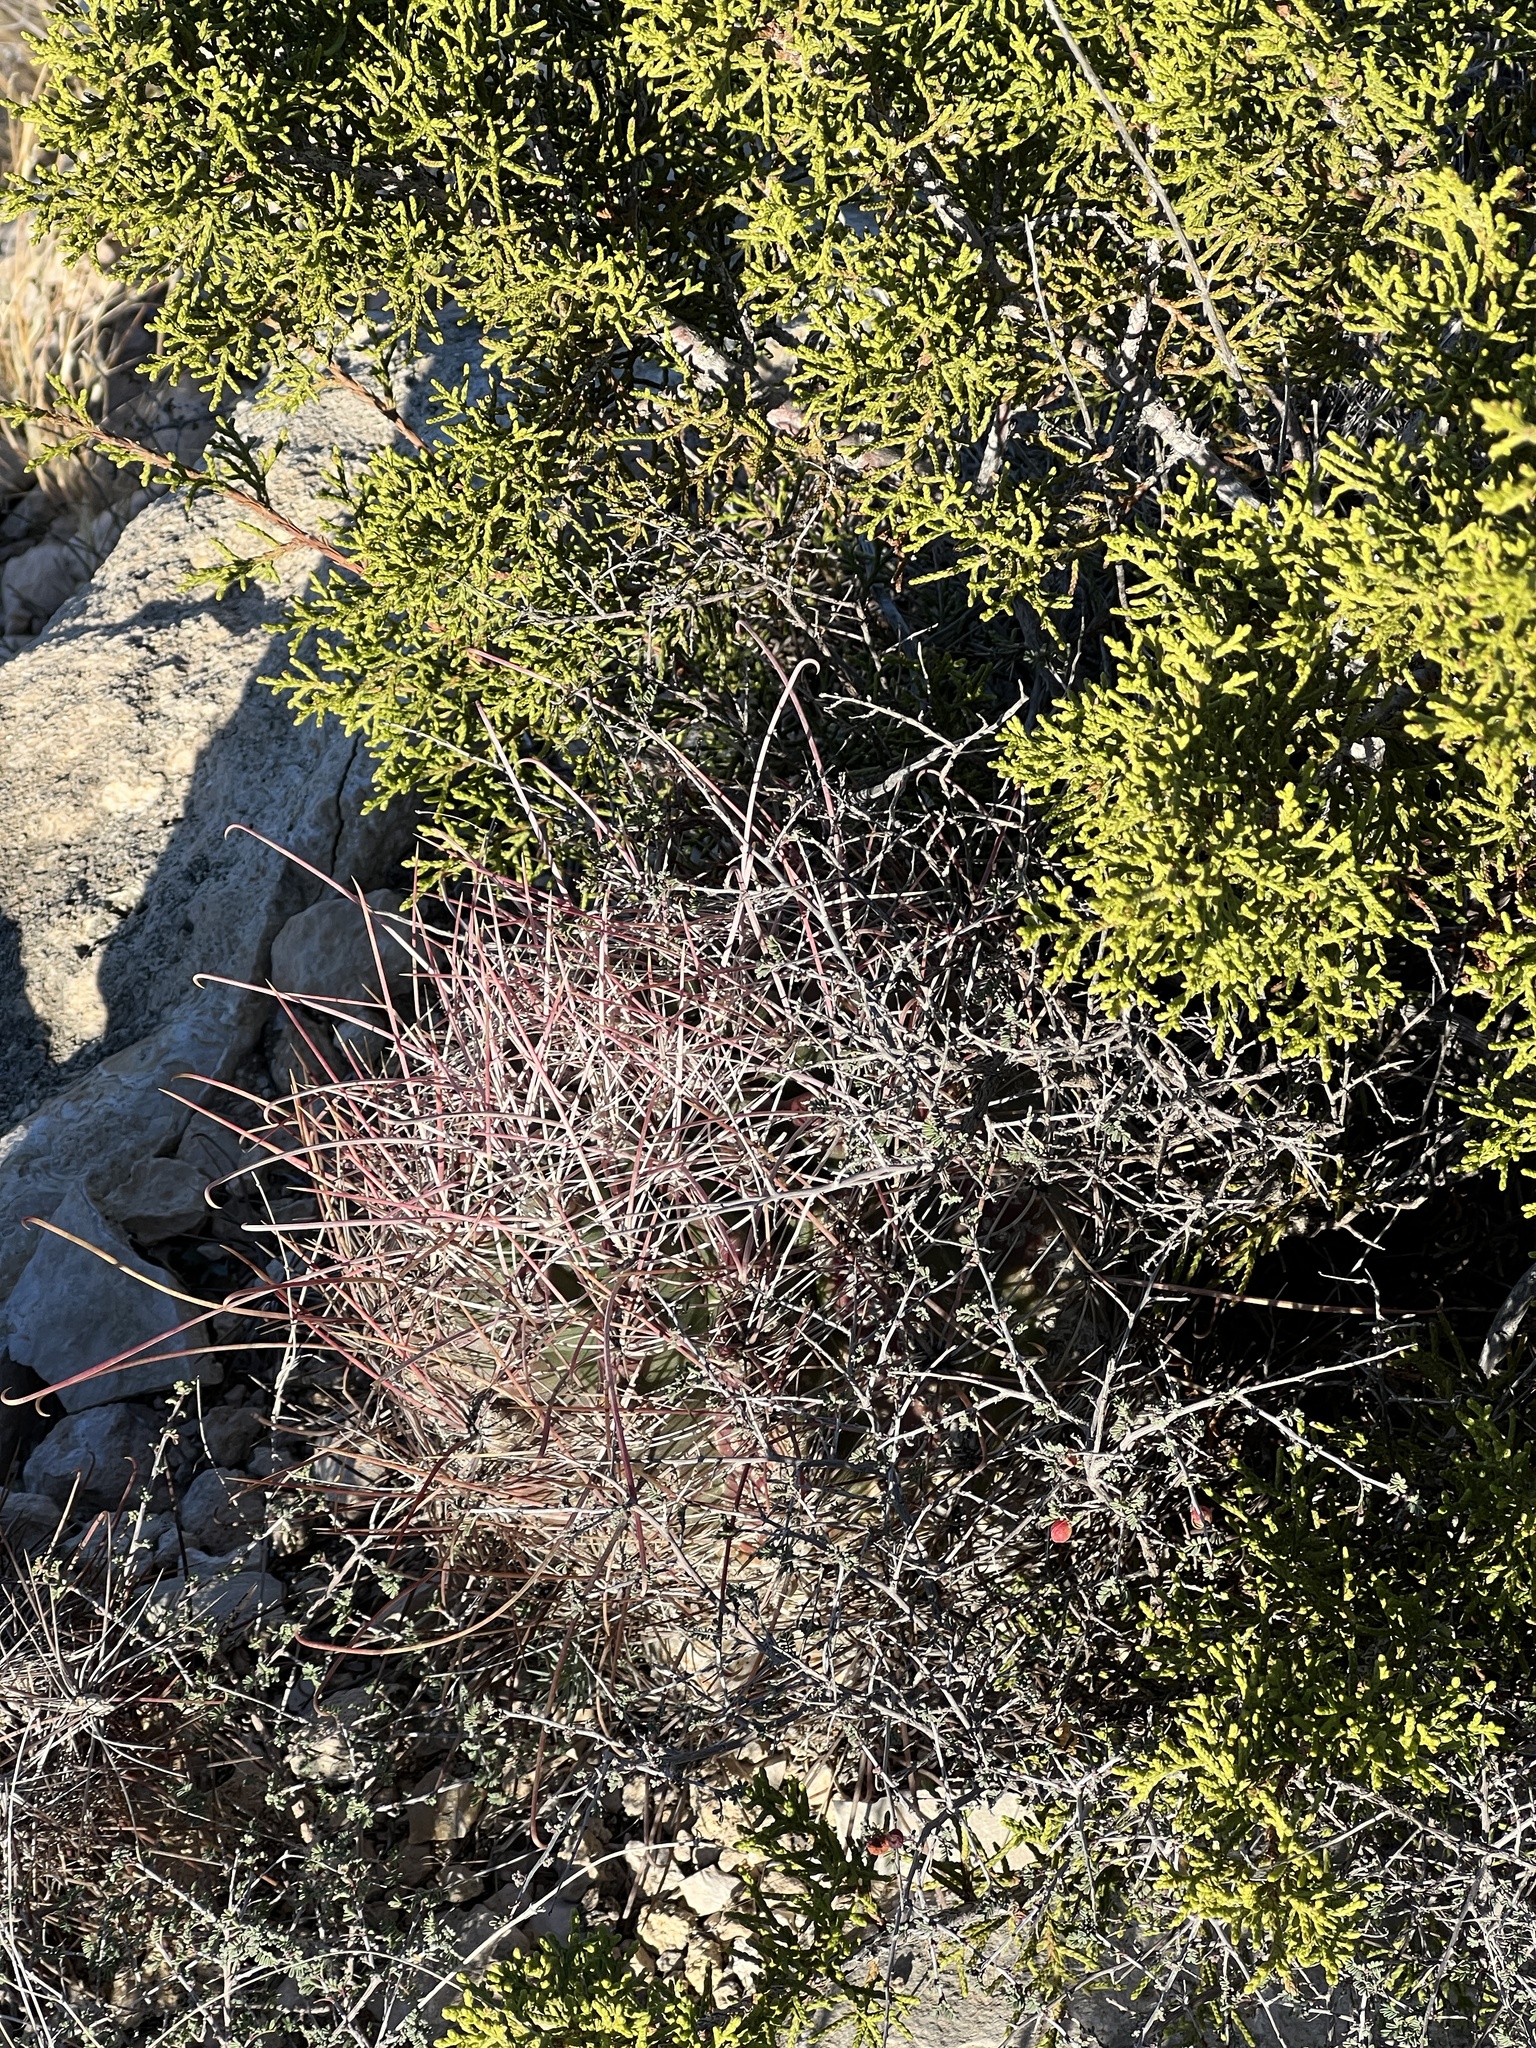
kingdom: Plantae
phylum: Tracheophyta
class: Magnoliopsida
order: Caryophyllales
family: Cactaceae
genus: Bisnaga
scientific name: Bisnaga hamatacantha
